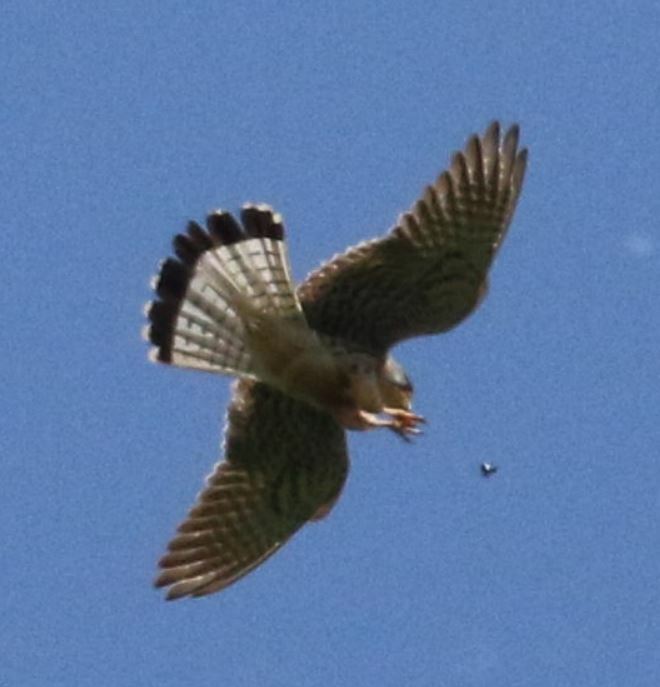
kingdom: Animalia
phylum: Chordata
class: Aves
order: Falconiformes
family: Falconidae
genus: Falco
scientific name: Falco tinnunculus
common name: Common kestrel
